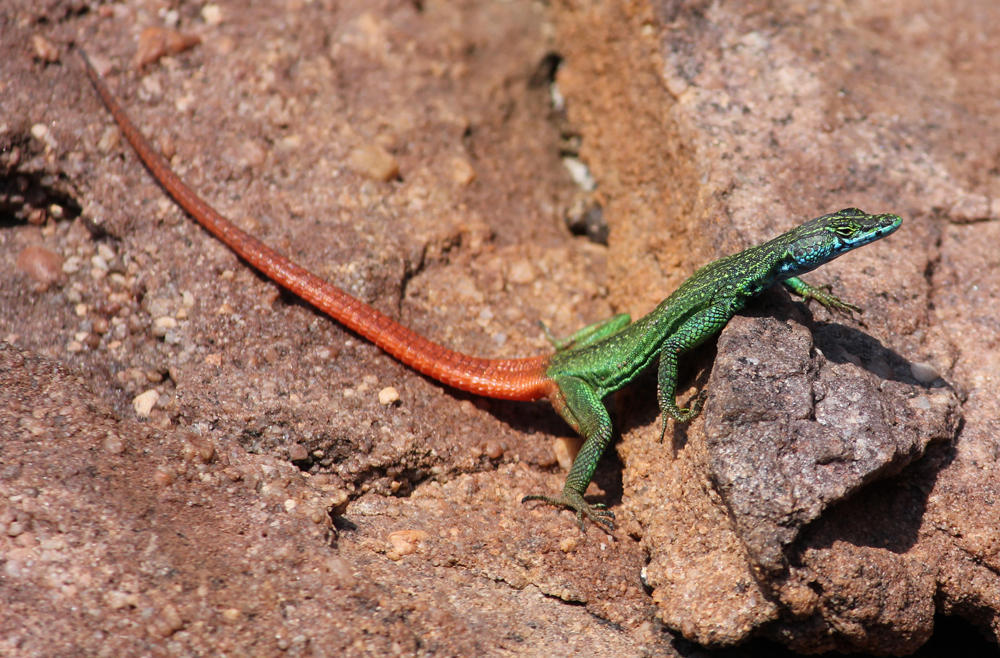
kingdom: Animalia
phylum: Chordata
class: Squamata
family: Cordylidae
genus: Platysaurus
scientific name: Platysaurus relictus
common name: Soutpansberg flat lizard
